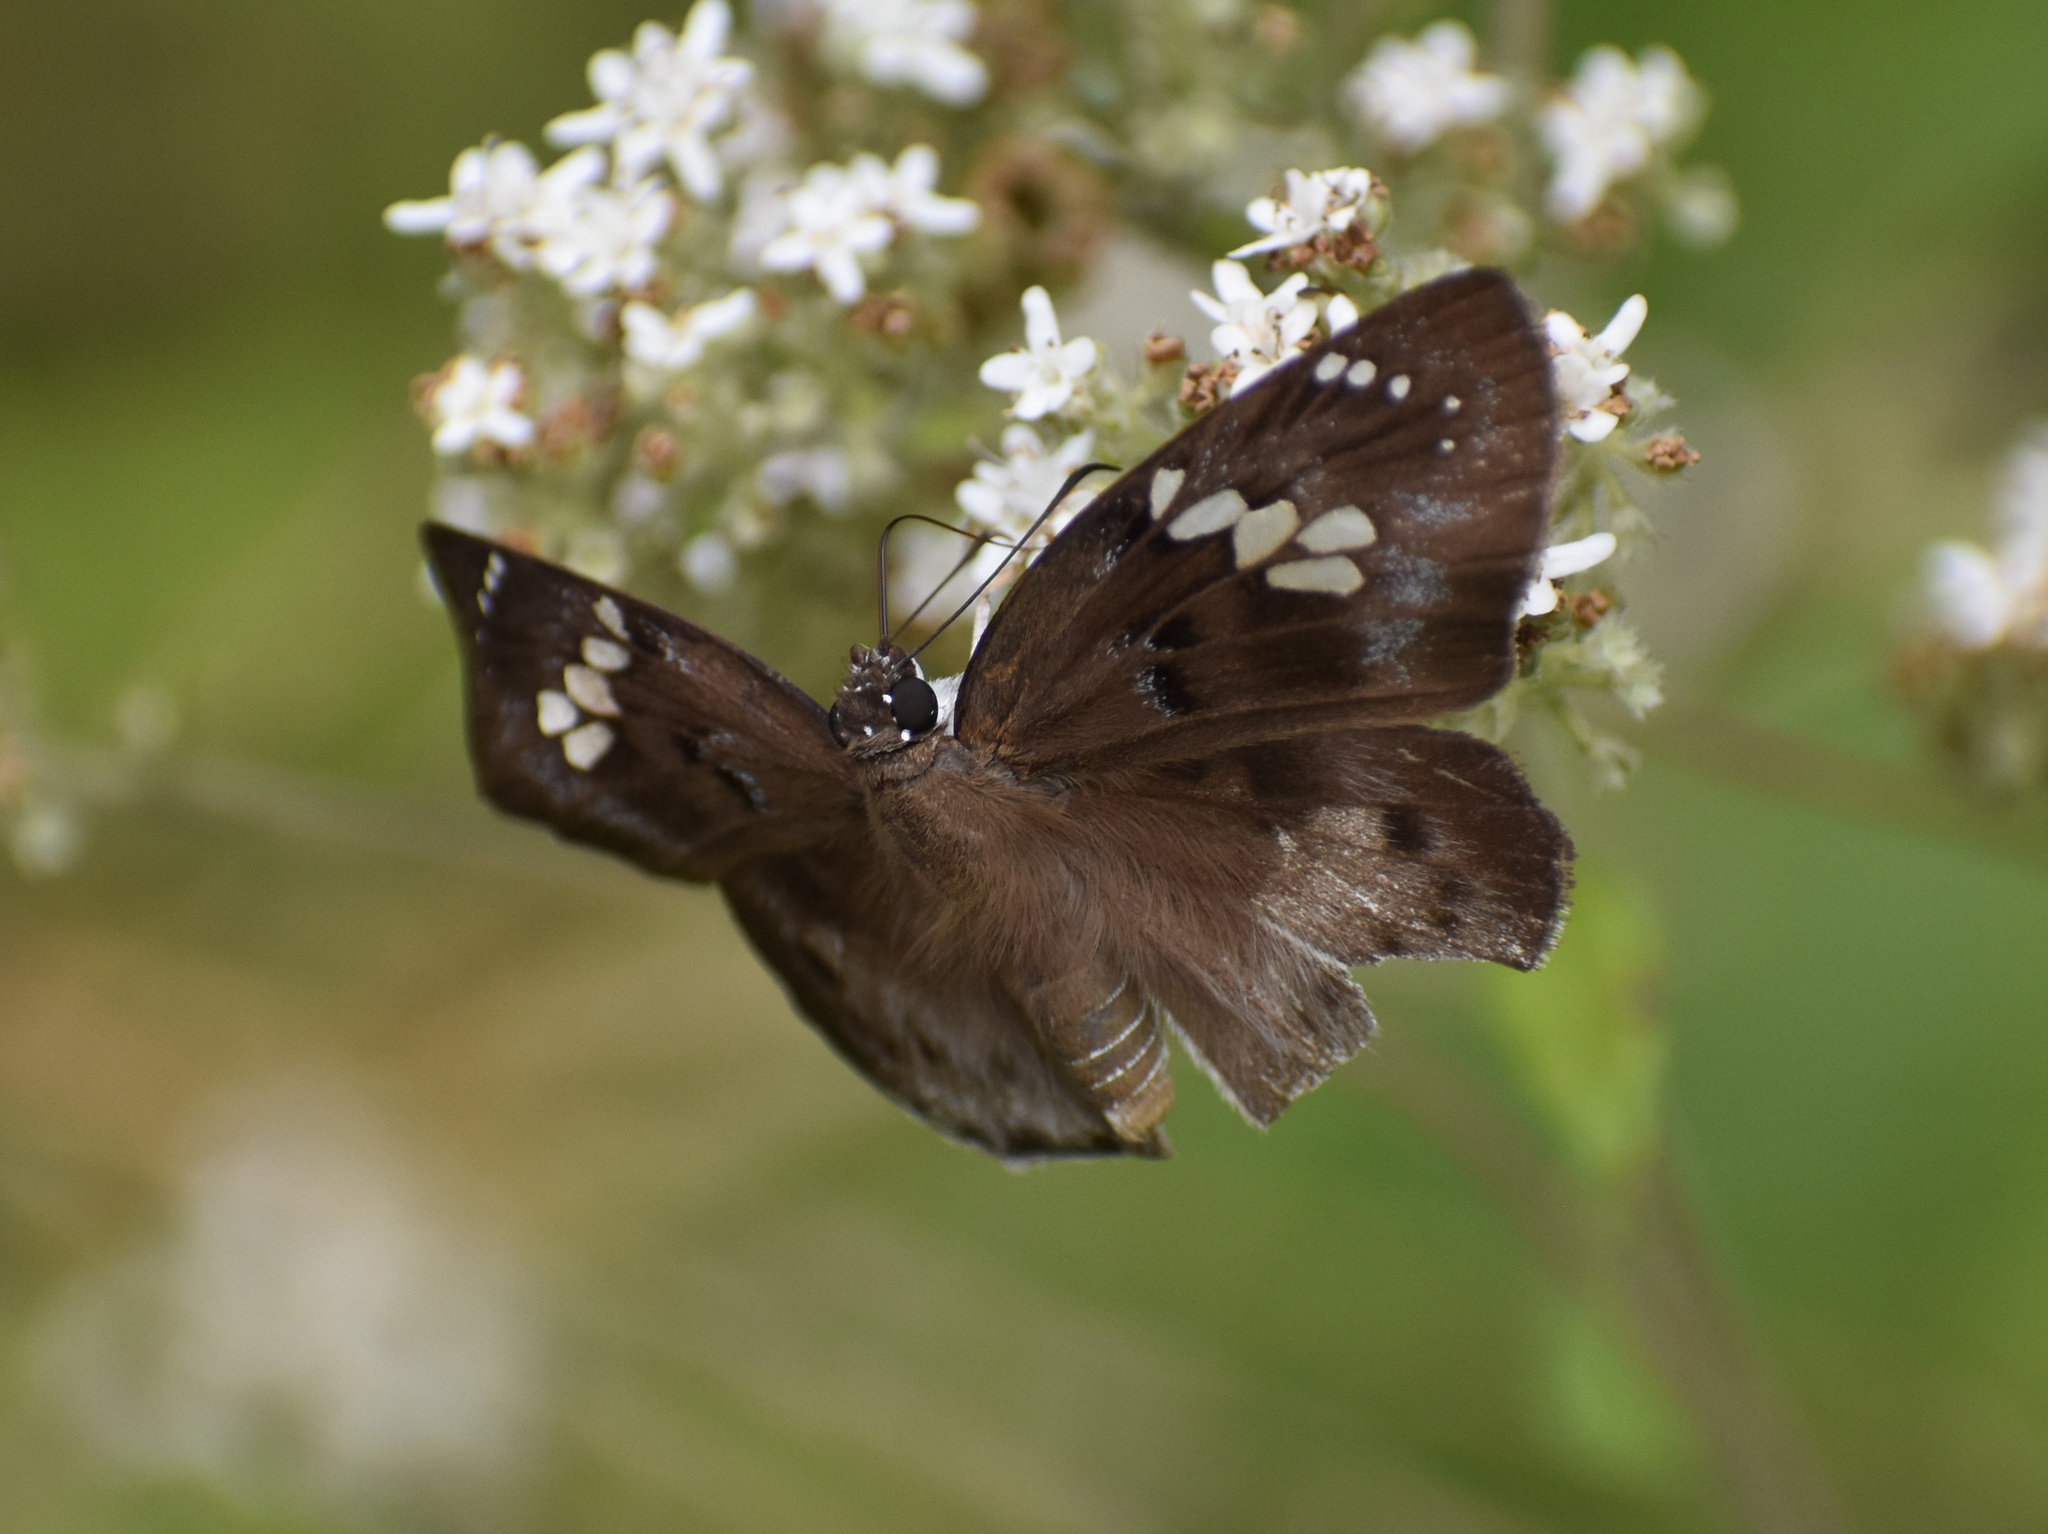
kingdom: Animalia
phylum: Arthropoda
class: Insecta
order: Lepidoptera
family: Hesperiidae
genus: Tagiades
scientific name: Tagiades flesus
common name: Clouded flat
